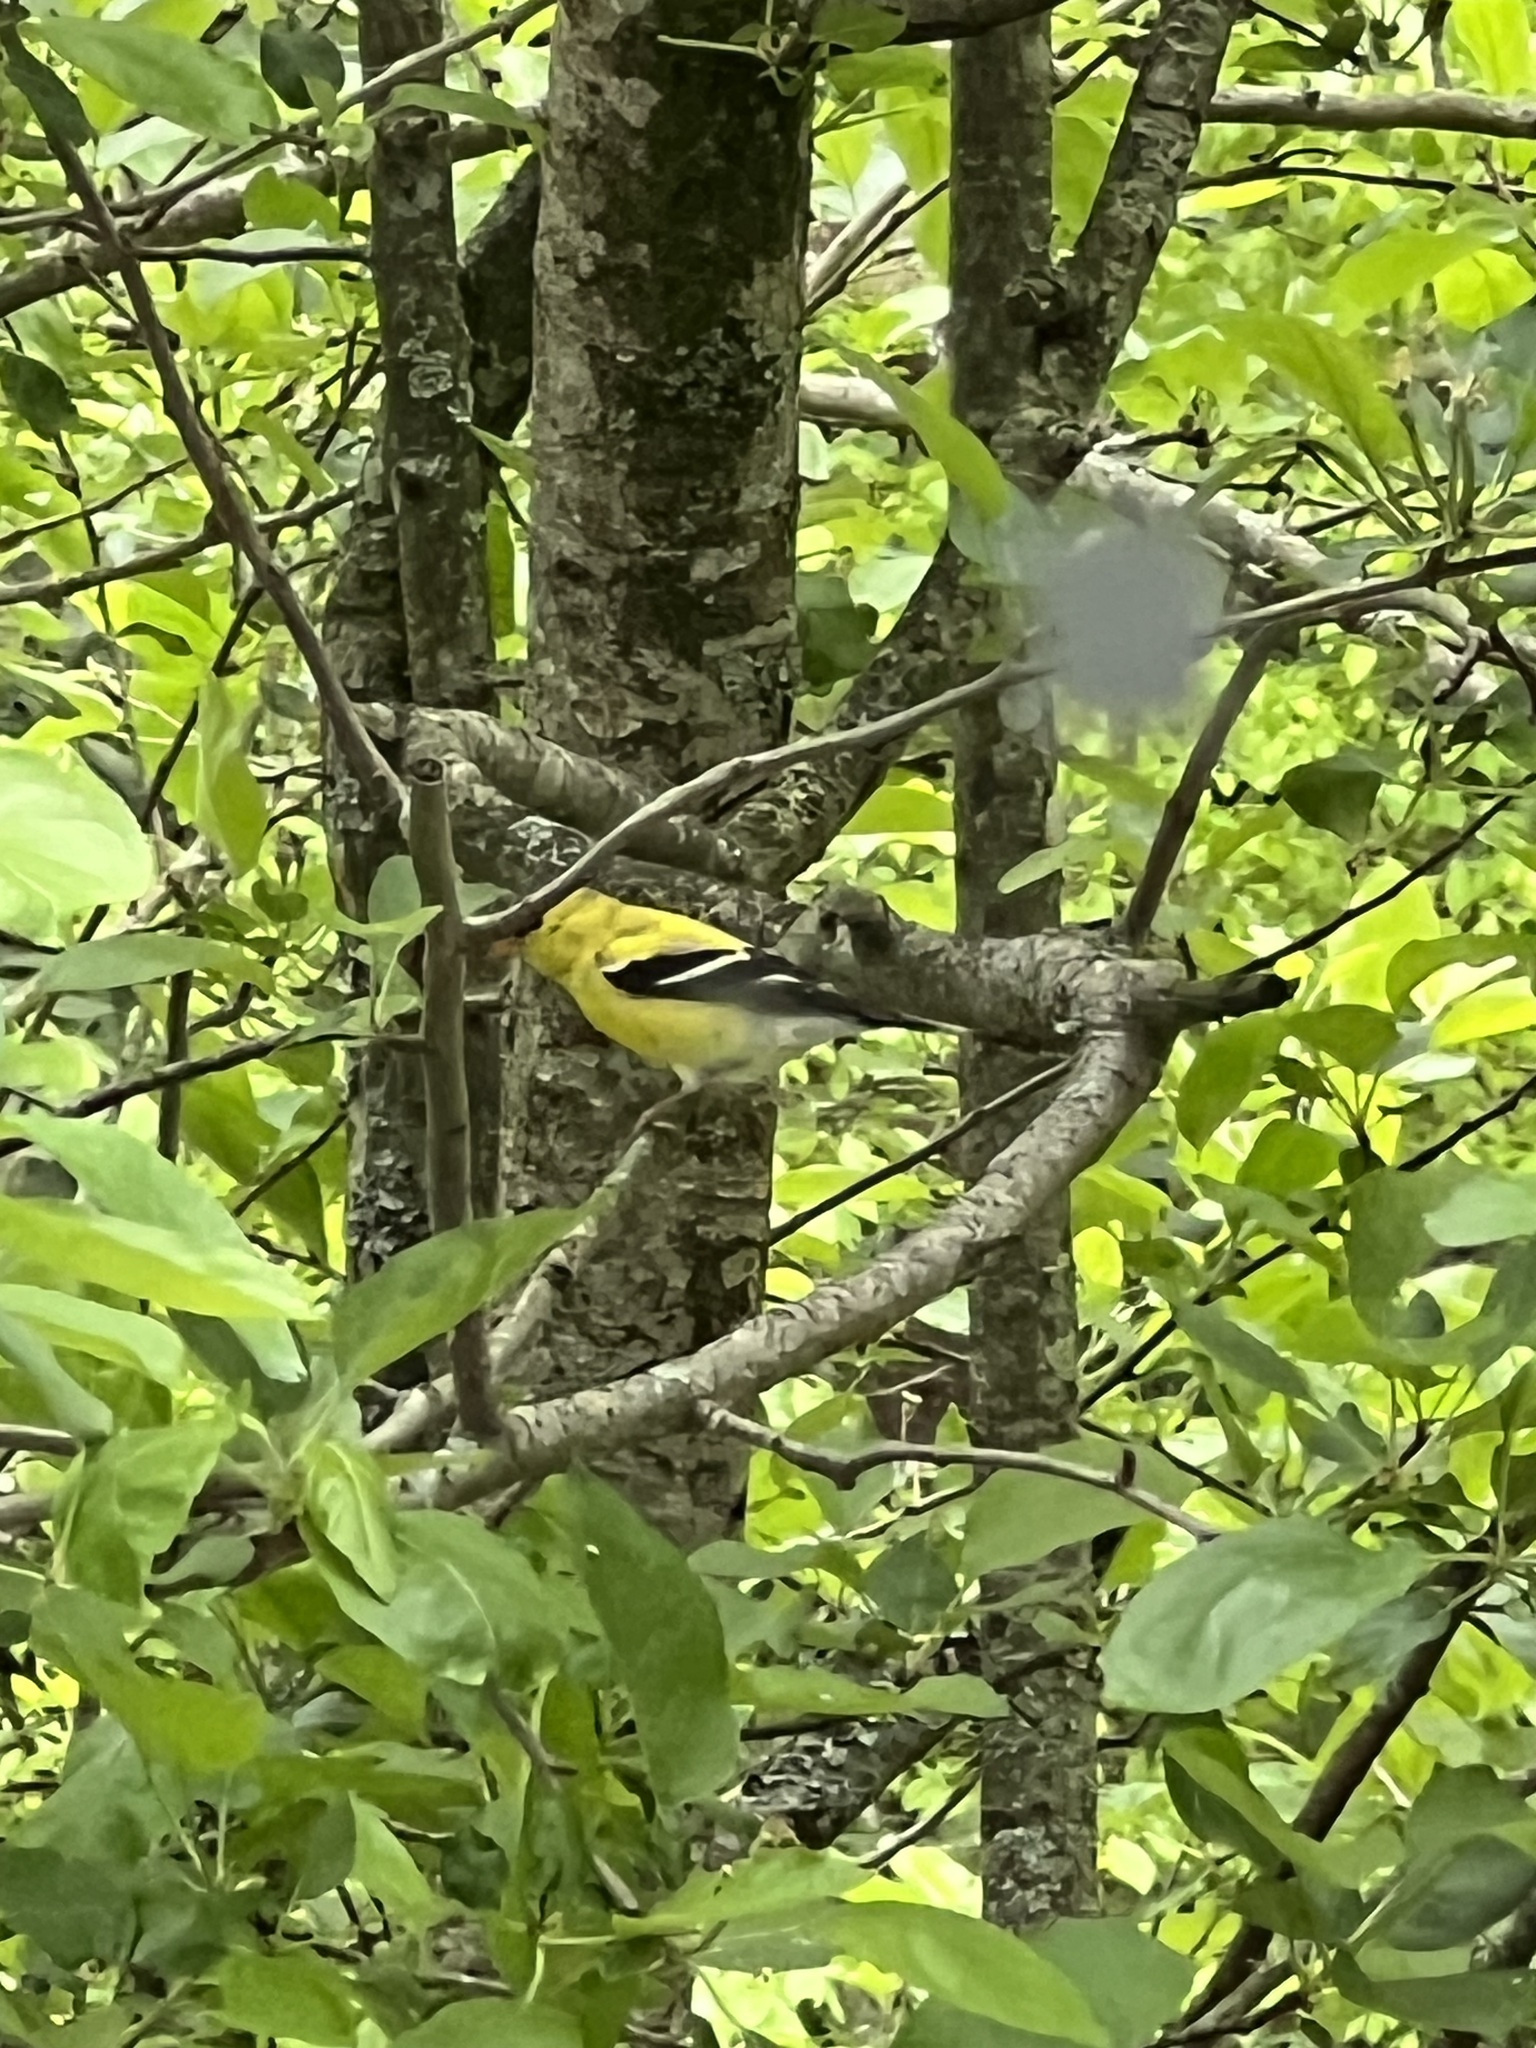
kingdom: Animalia
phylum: Chordata
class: Aves
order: Passeriformes
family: Fringillidae
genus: Spinus
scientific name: Spinus tristis
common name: American goldfinch
